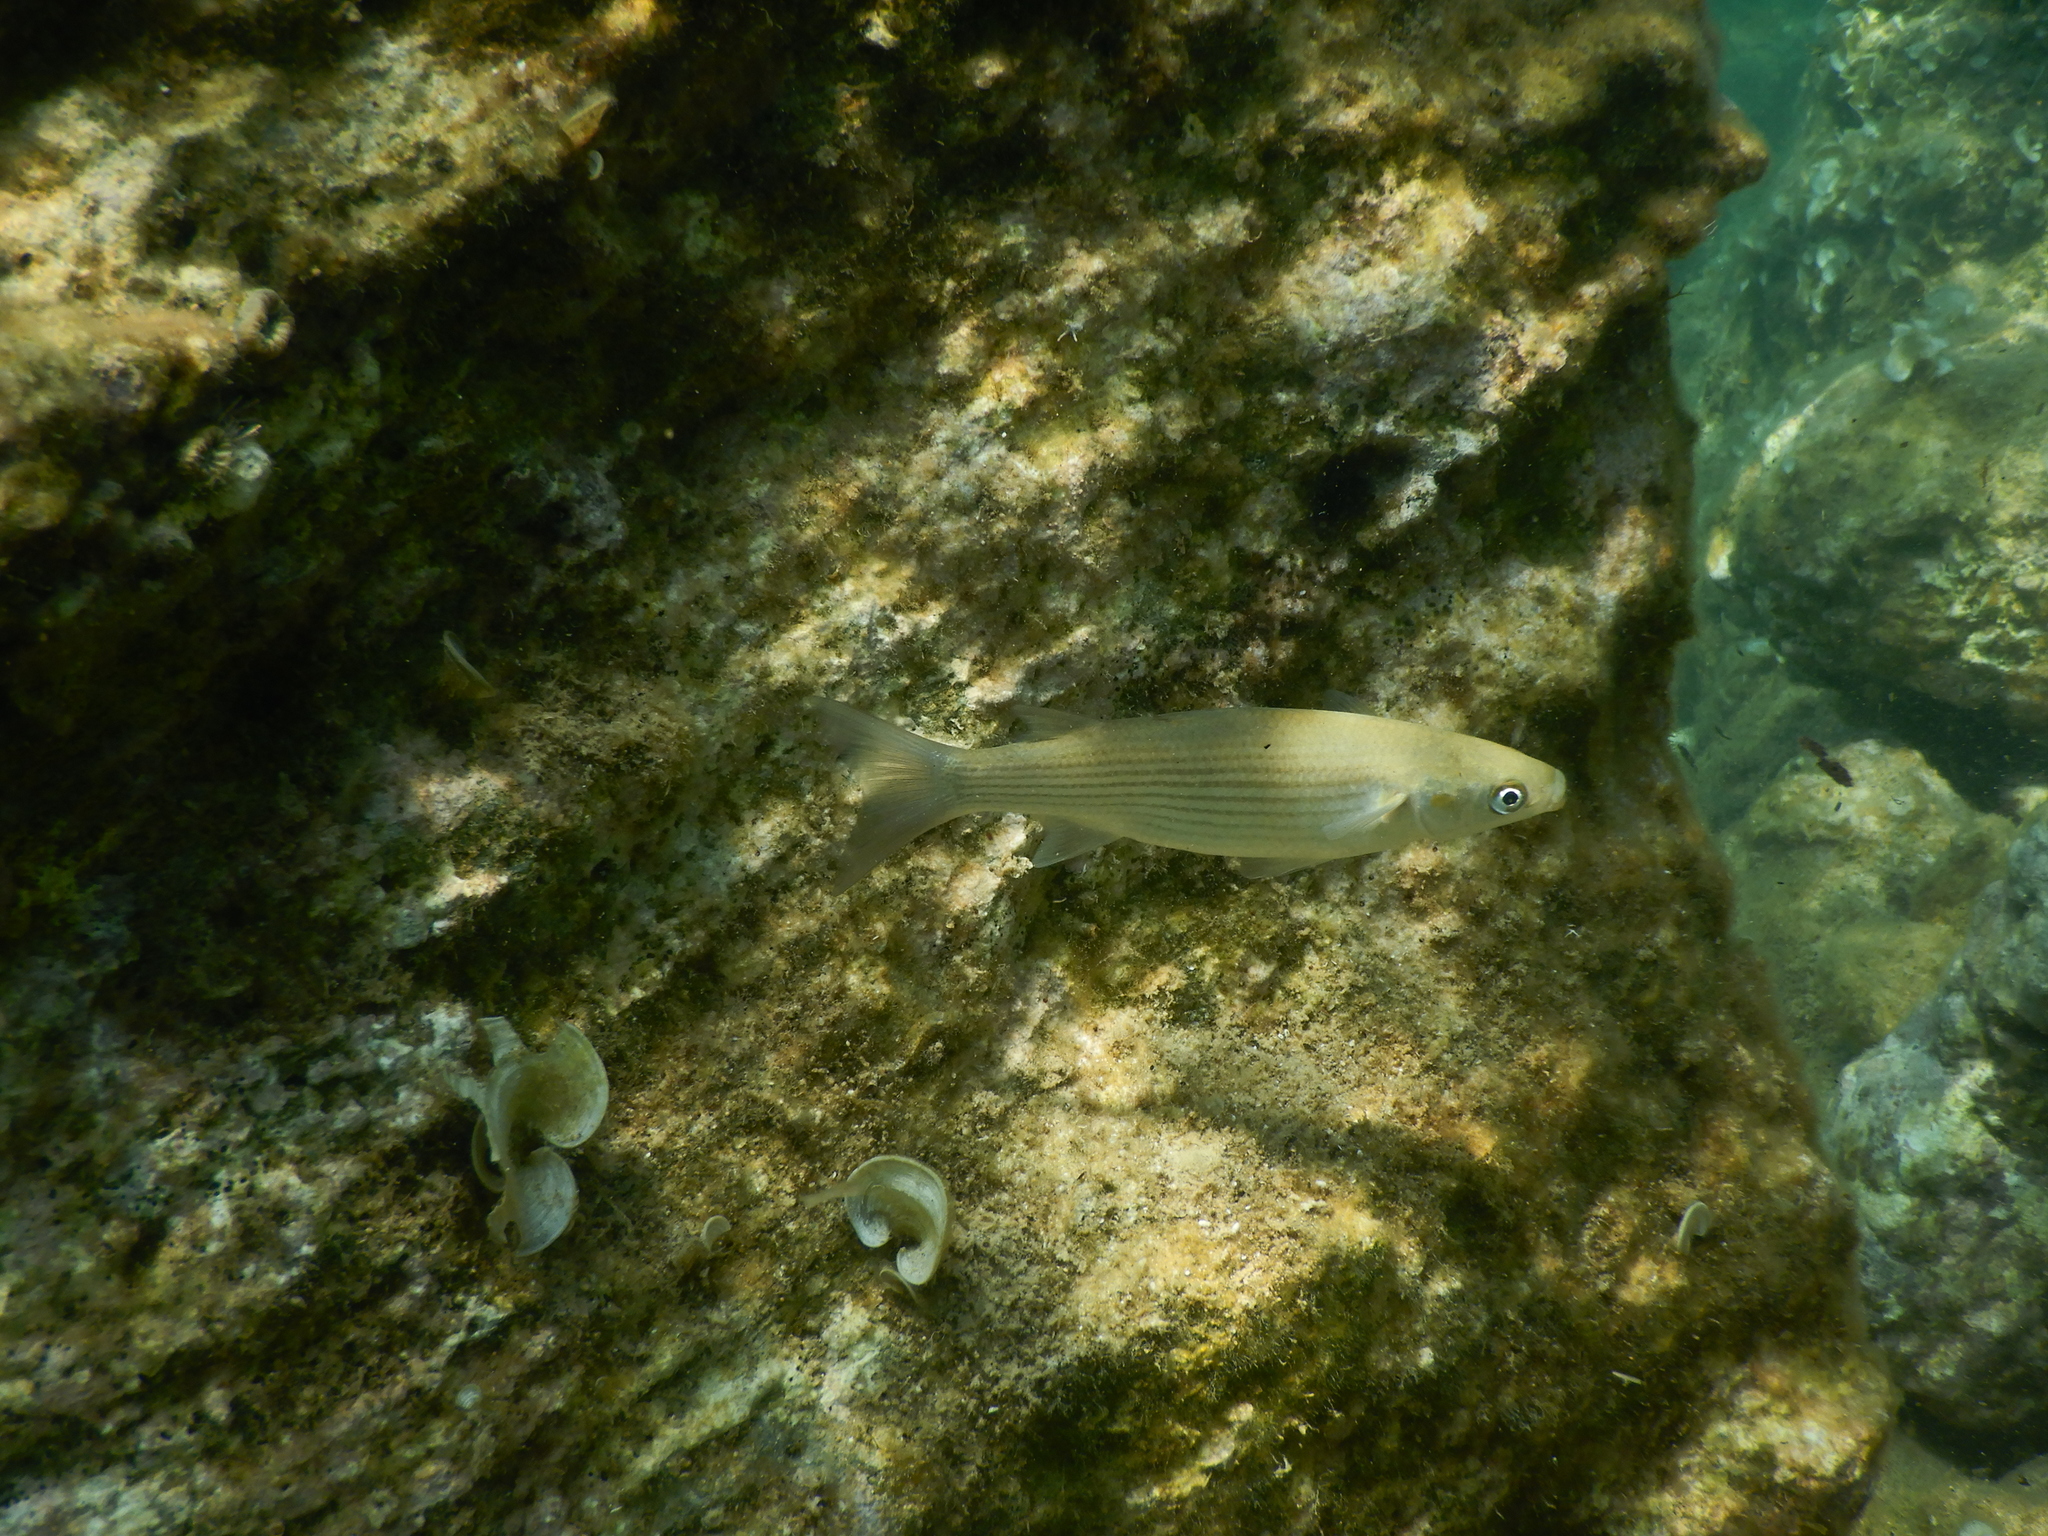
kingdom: Animalia
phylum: Chordata
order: Mugiliformes
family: Mugilidae
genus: Chelon
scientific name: Chelon labrosus
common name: Thick-lipped mullet
